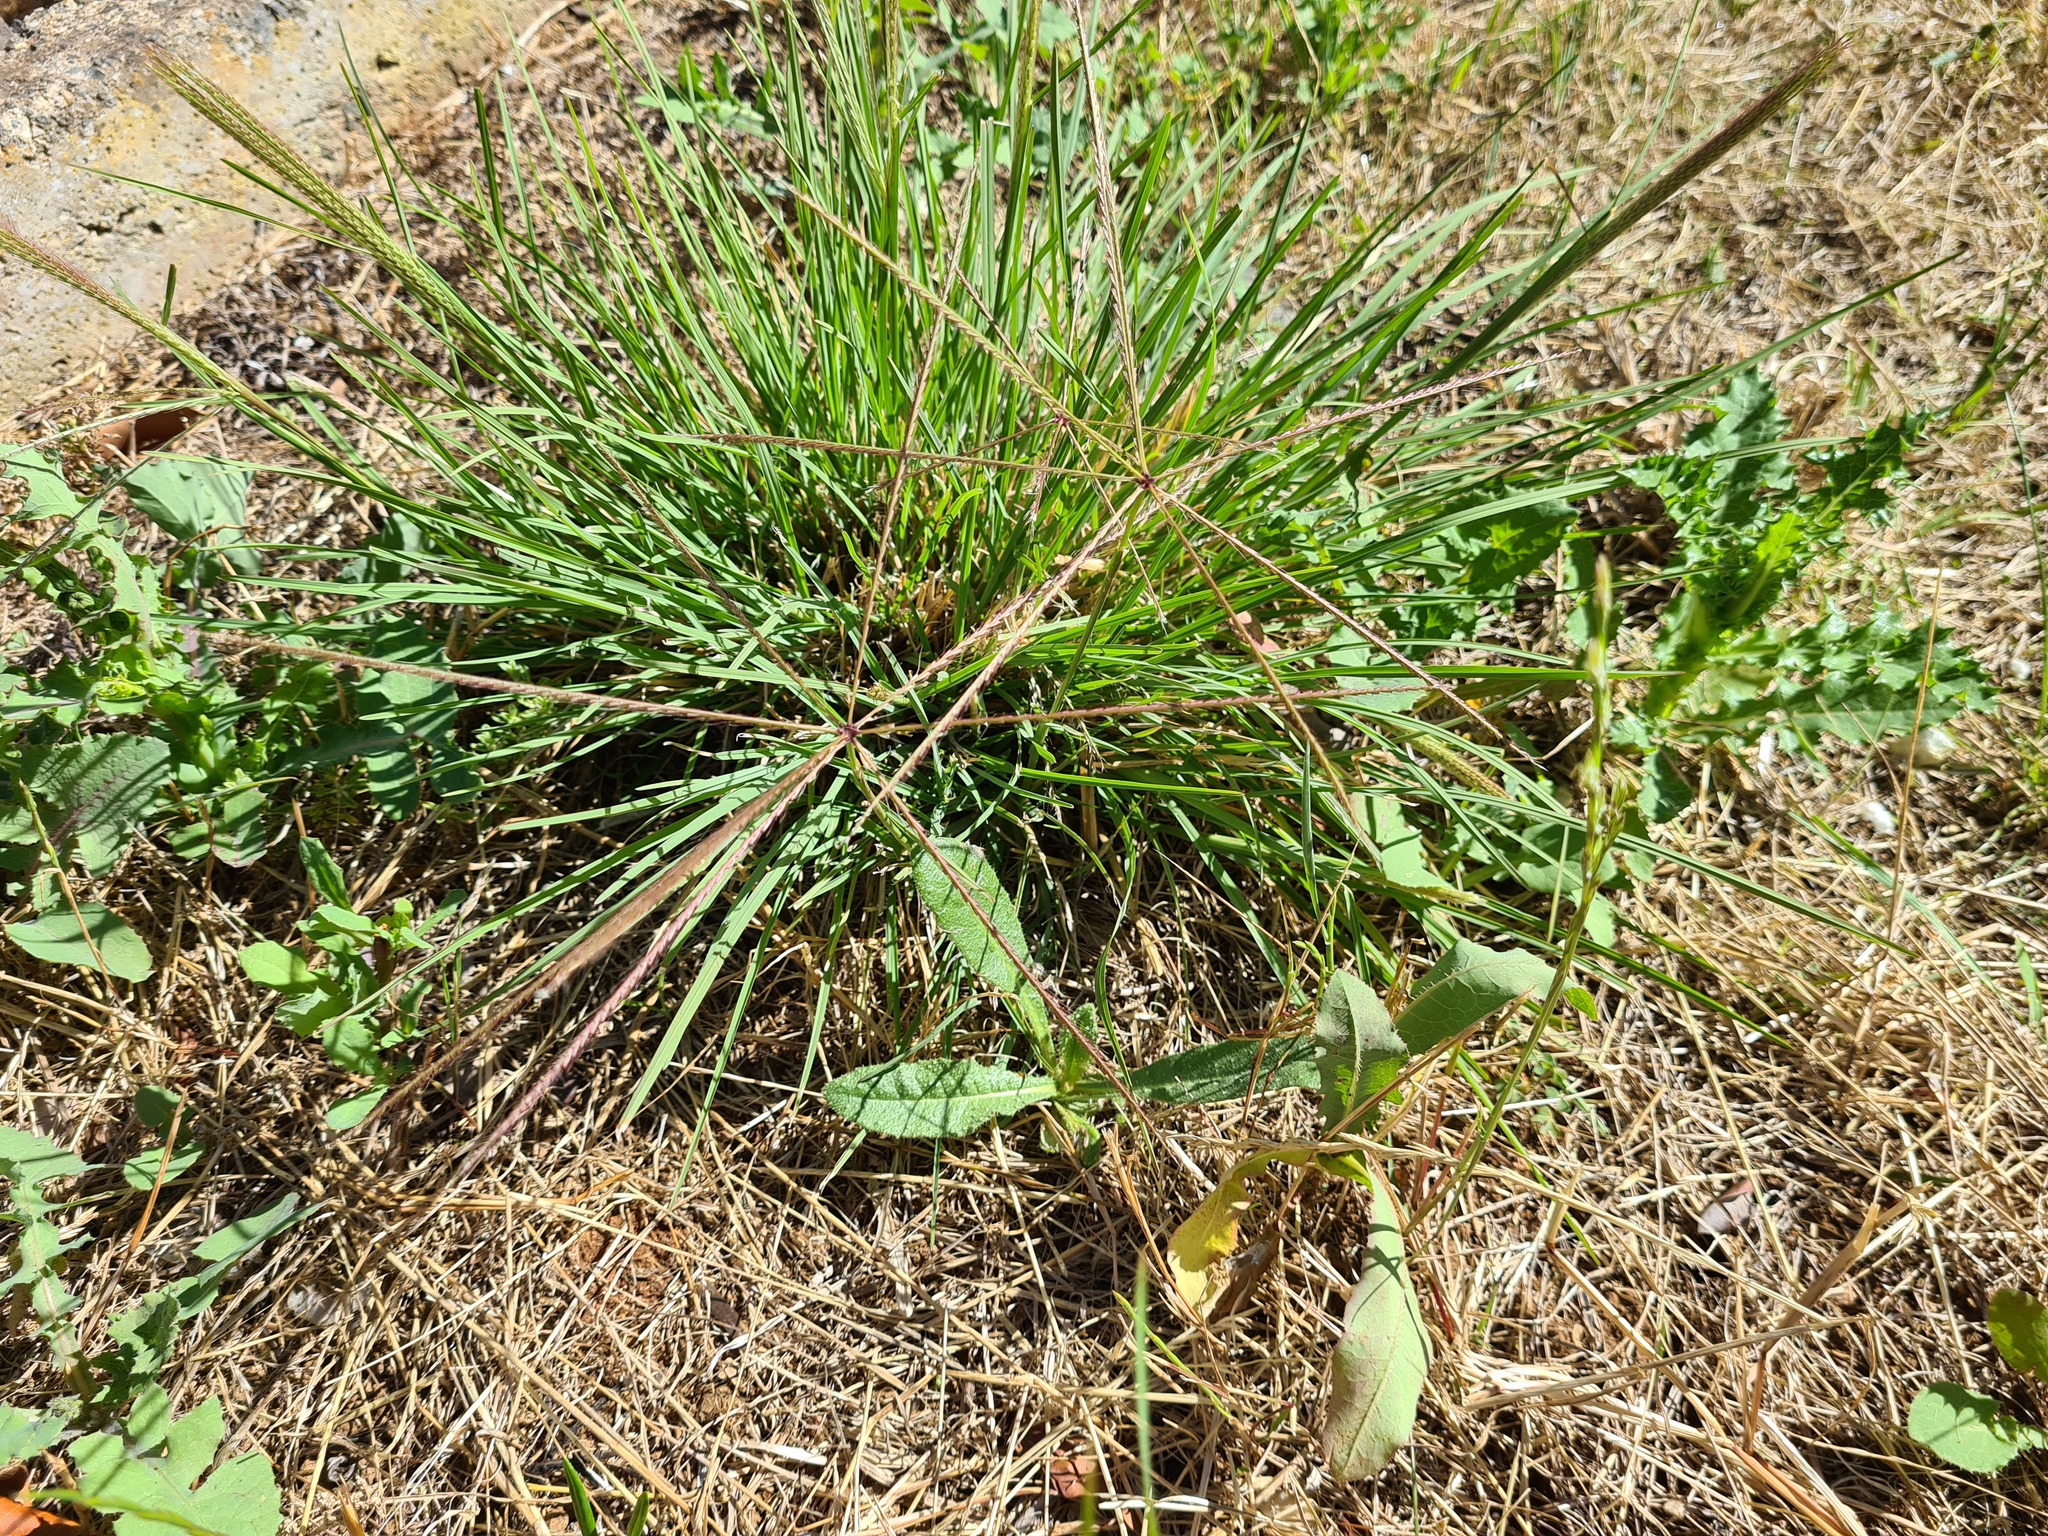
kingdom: Plantae
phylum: Tracheophyta
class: Liliopsida
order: Poales
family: Poaceae
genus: Chloris
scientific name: Chloris truncata
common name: Windmill-grass
